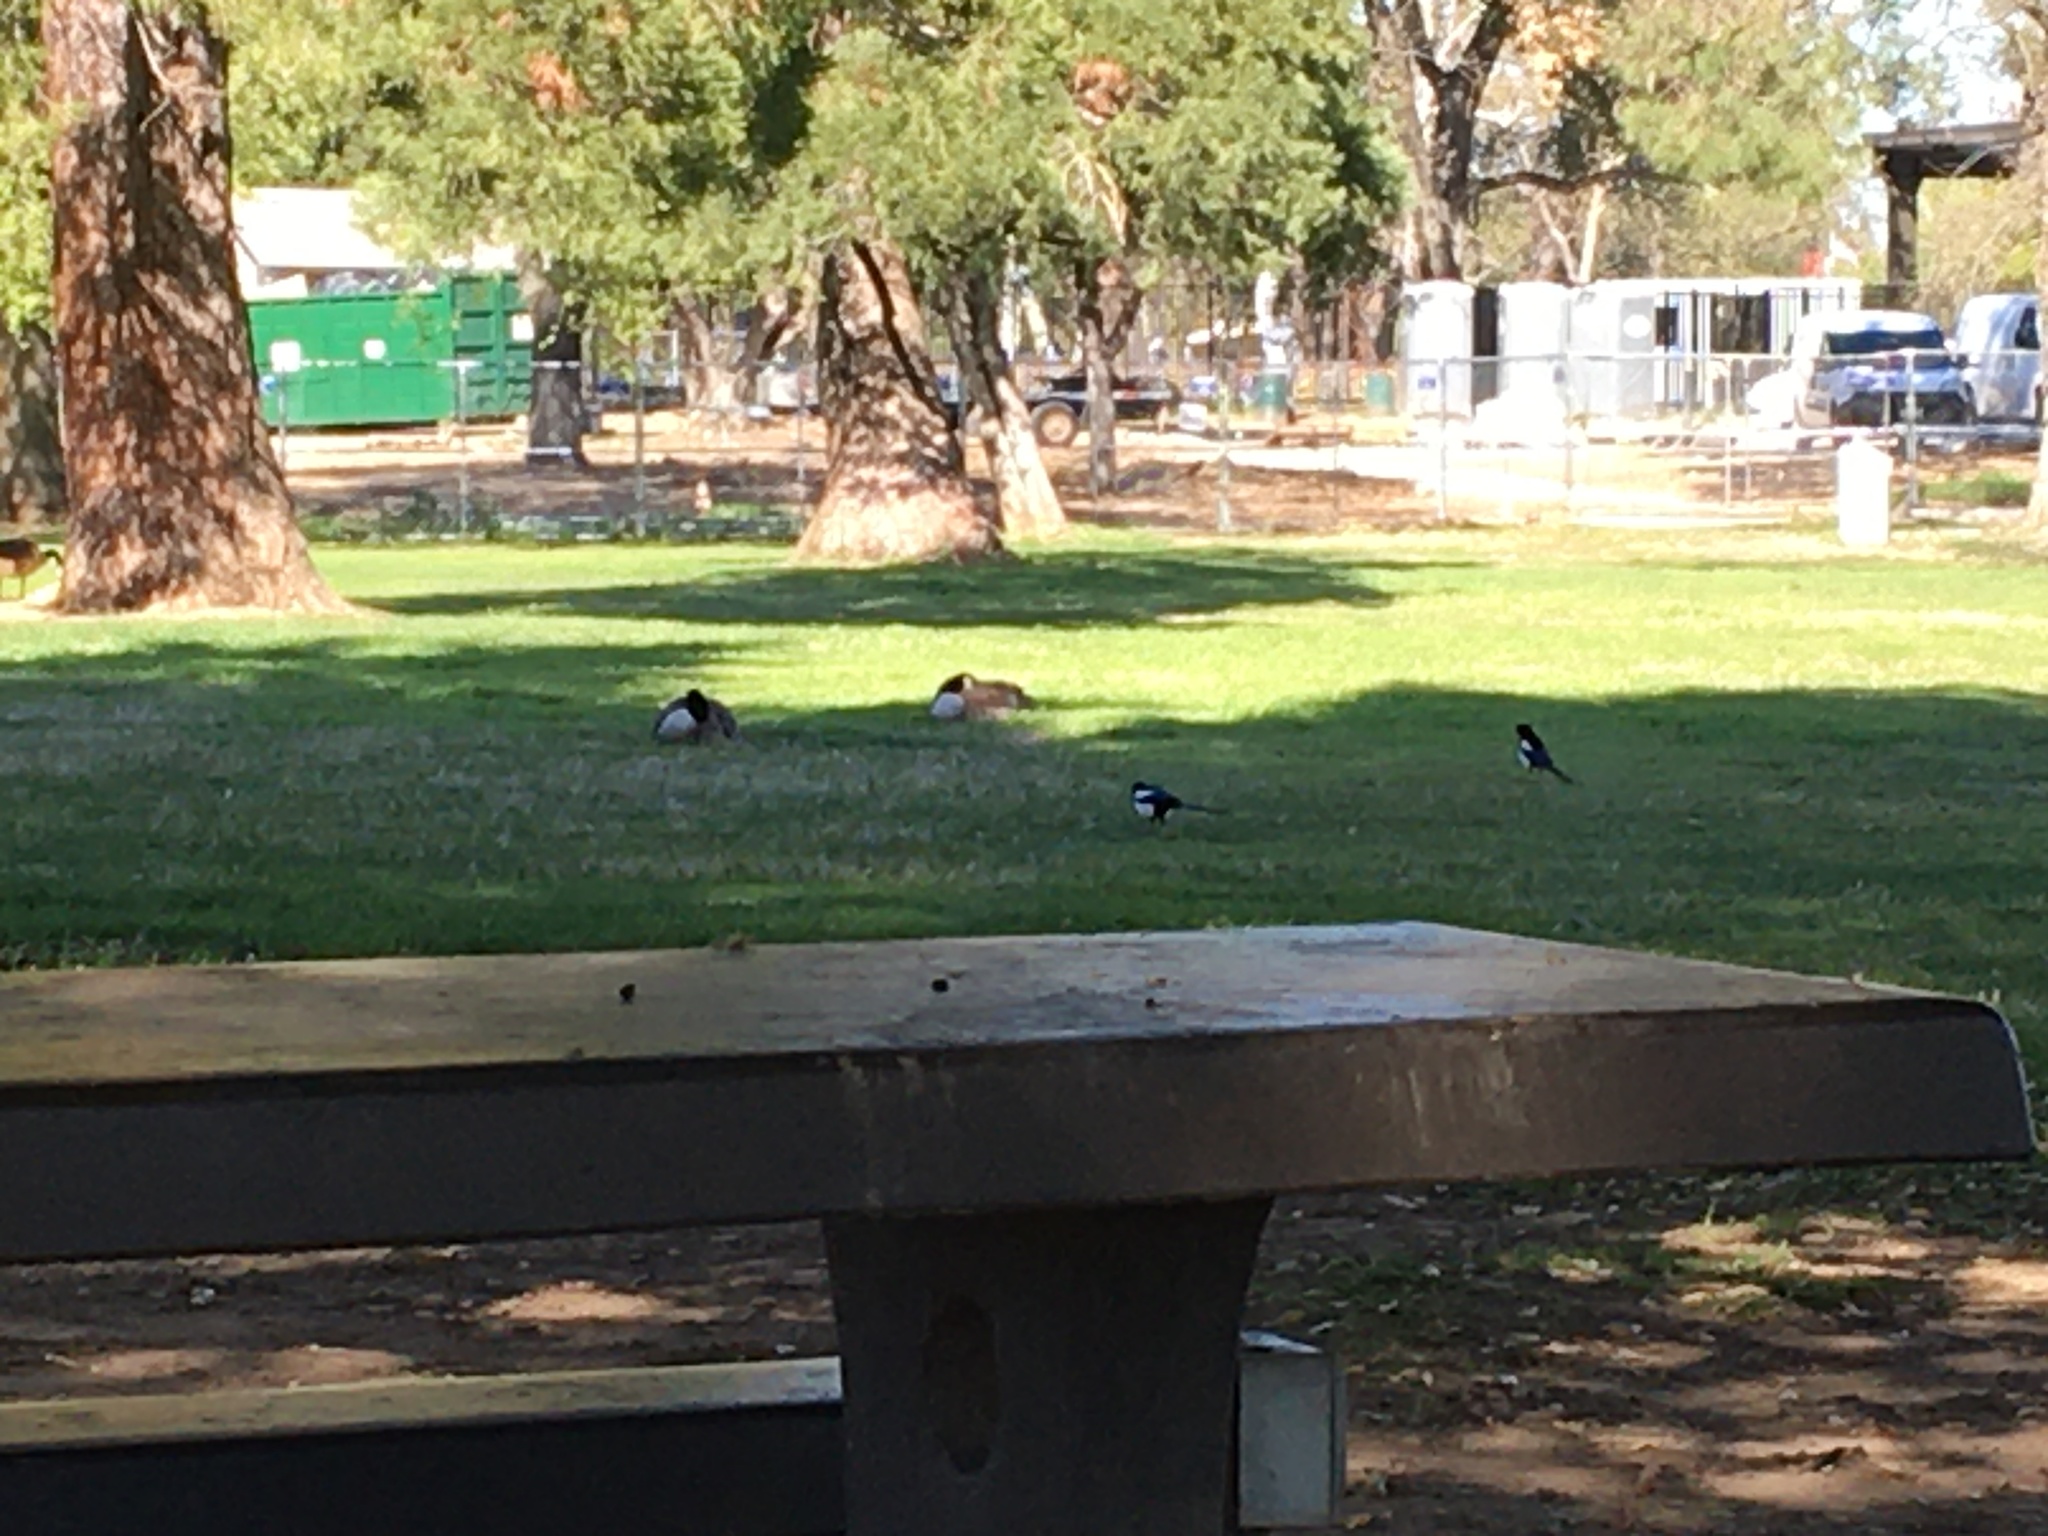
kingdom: Animalia
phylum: Chordata
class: Aves
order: Passeriformes
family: Corvidae
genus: Pica
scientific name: Pica nuttalli
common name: Yellow-billed magpie
